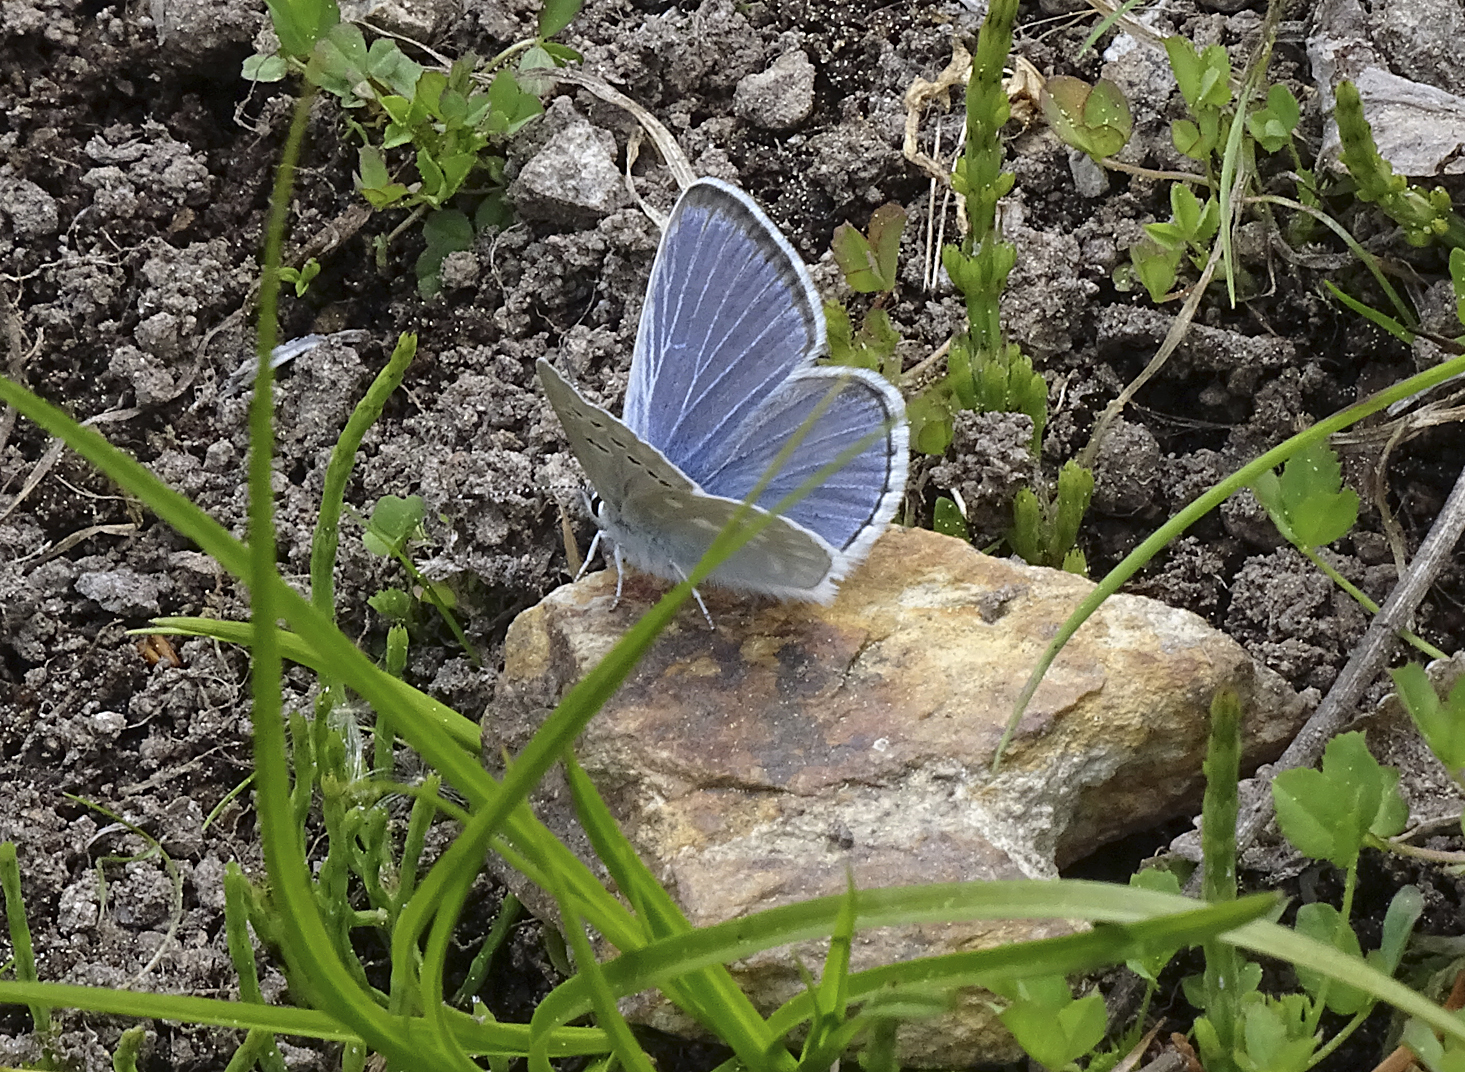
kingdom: Animalia
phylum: Arthropoda
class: Insecta
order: Lepidoptera
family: Lycaenidae
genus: Icaricia
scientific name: Icaricia icarioides
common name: Boisduval's blue
